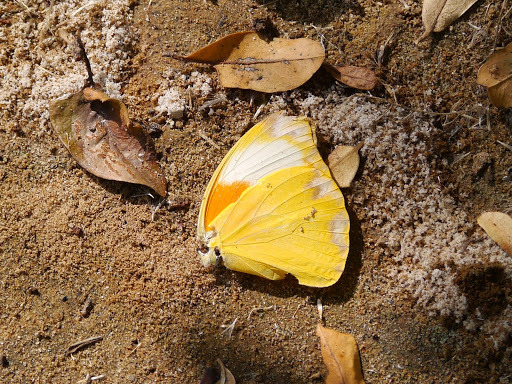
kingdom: Animalia
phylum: Arthropoda
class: Insecta
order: Lepidoptera
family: Pieridae
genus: Nepheronia
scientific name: Nepheronia argia
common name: Large vagrant
